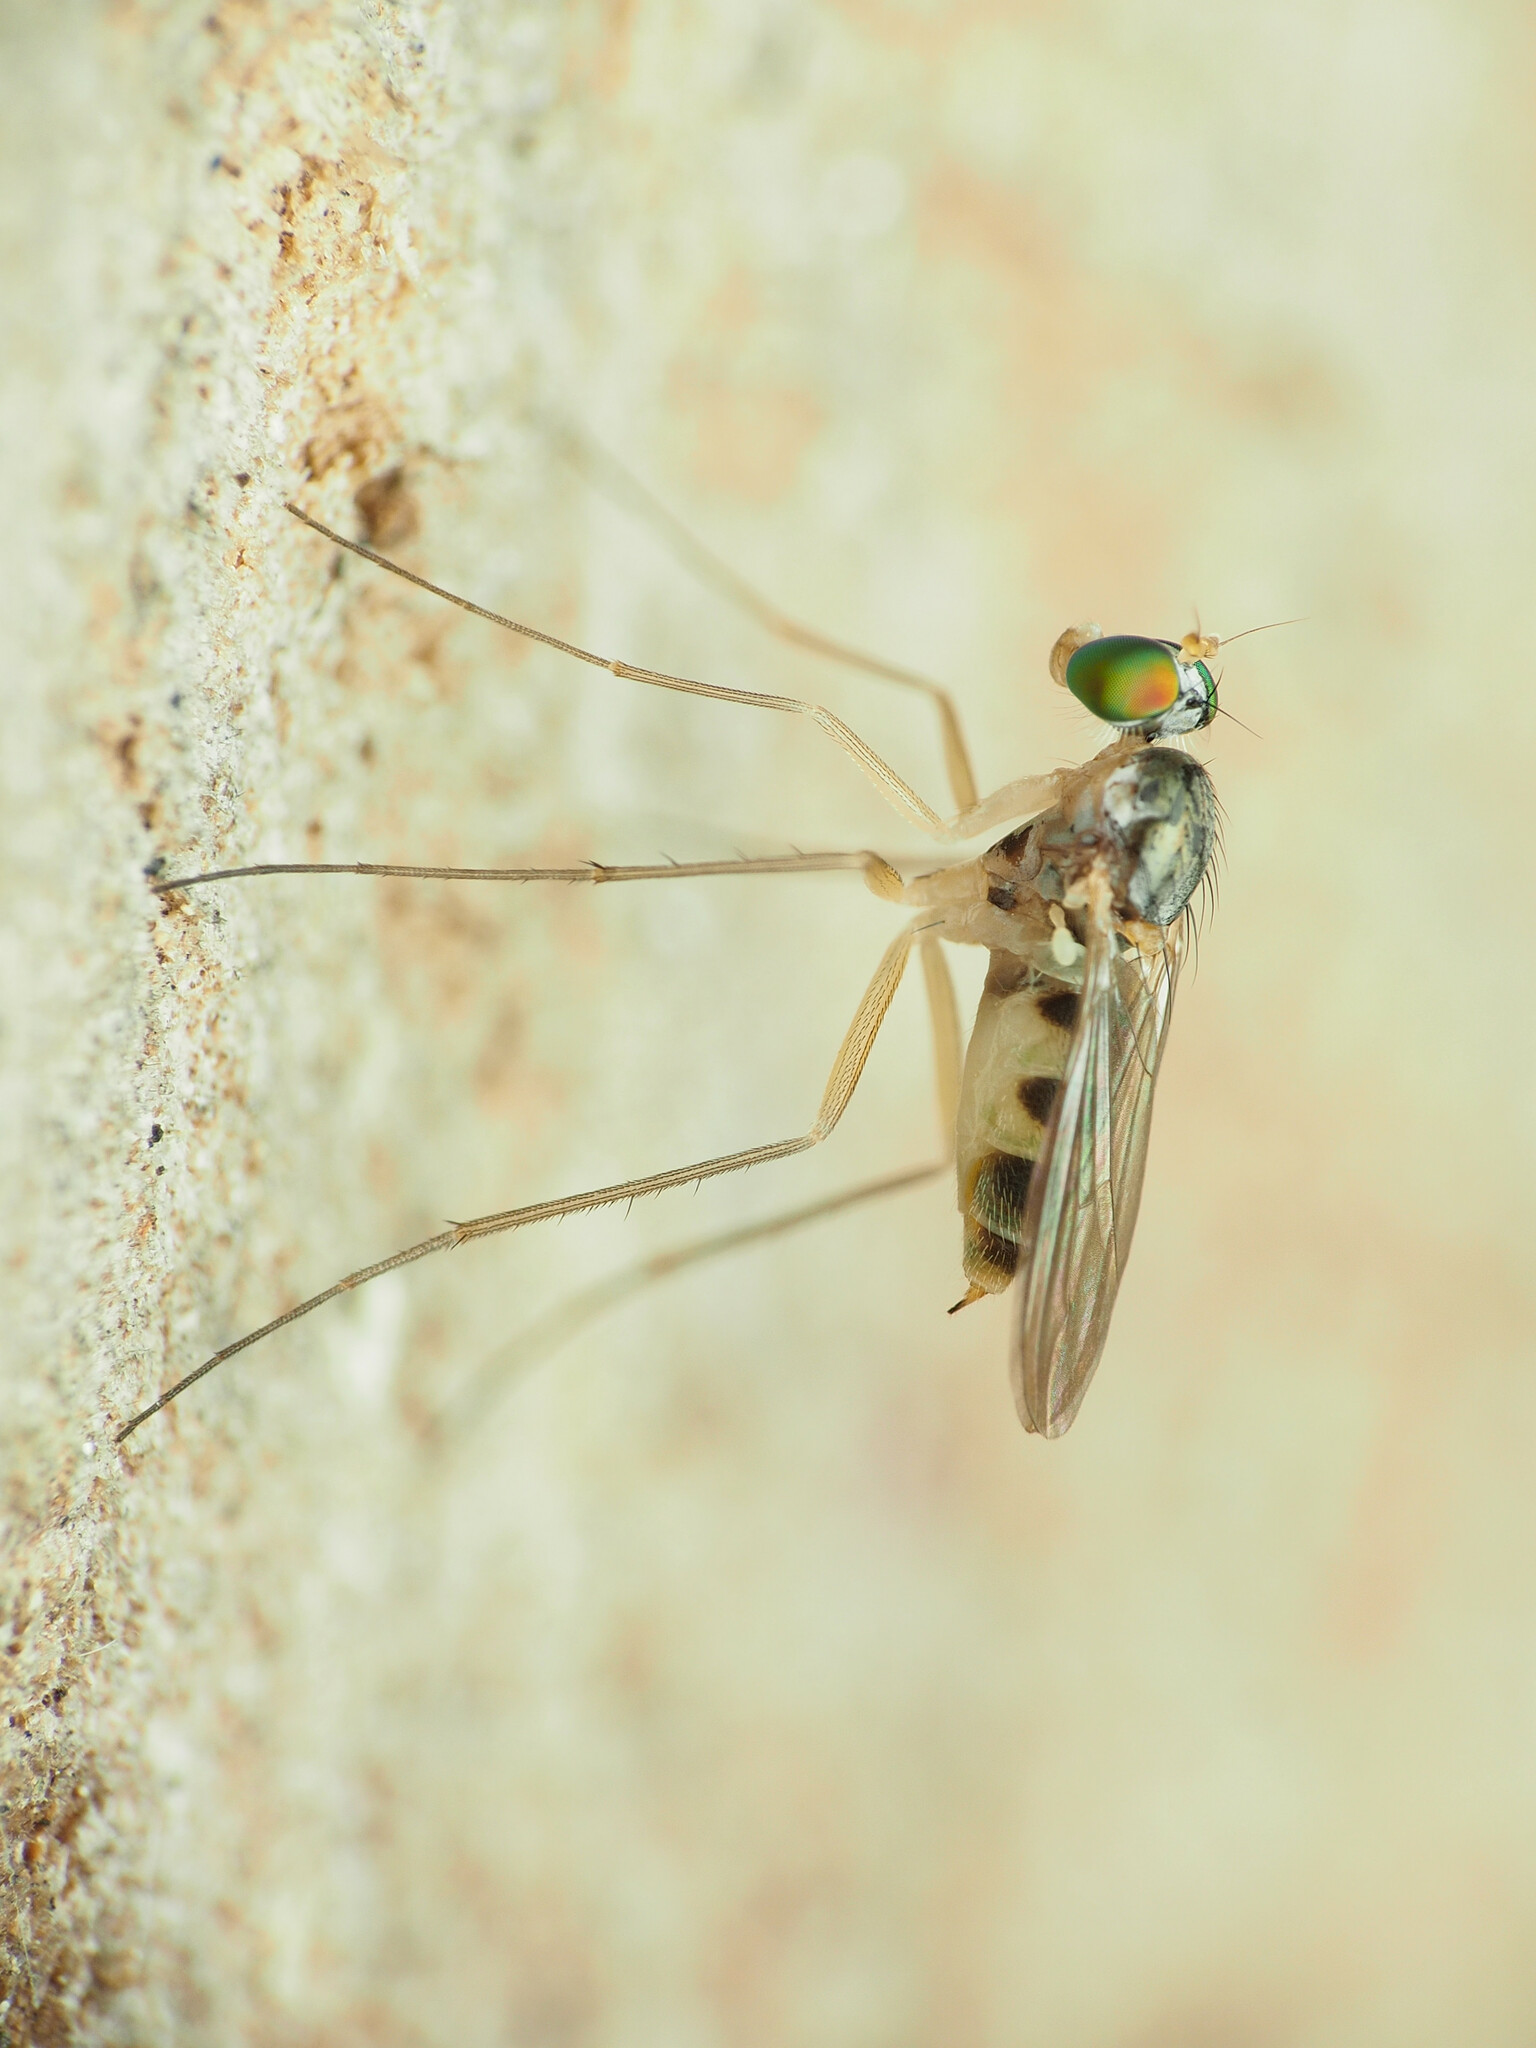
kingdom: Animalia
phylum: Arthropoda
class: Insecta
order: Diptera
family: Dolichopodidae
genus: Neurigona
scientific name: Neurigona arcuata
